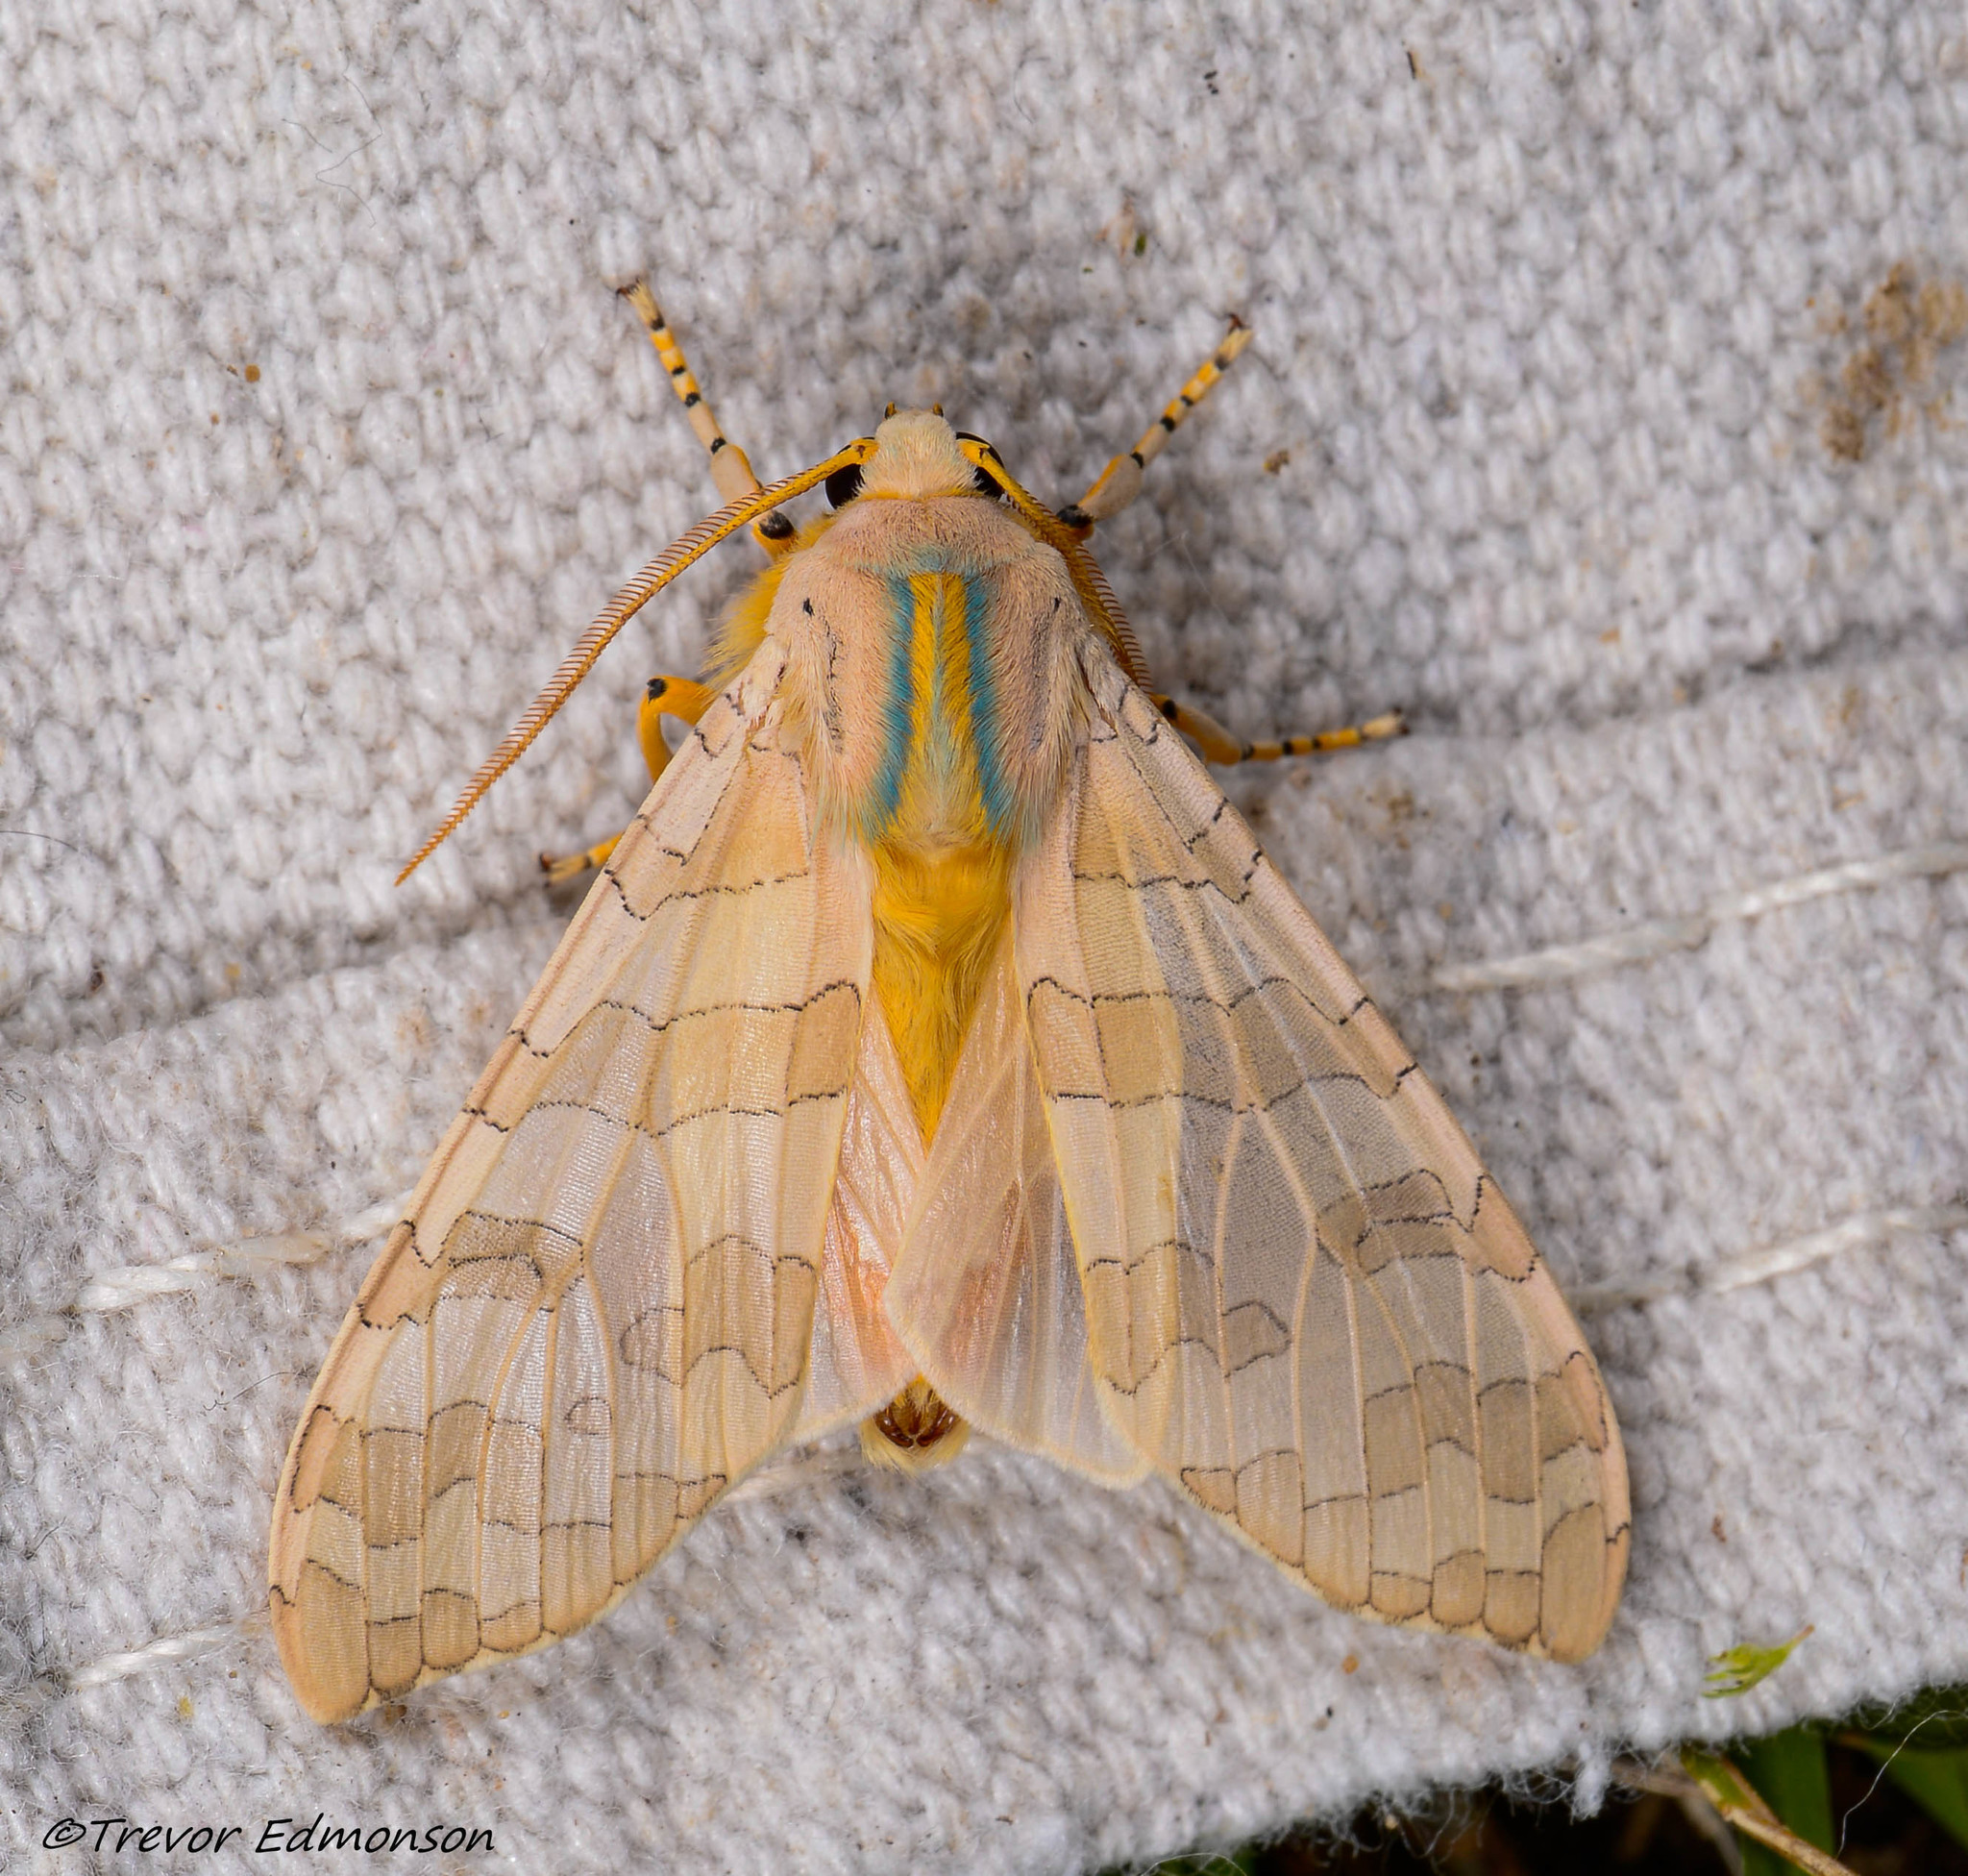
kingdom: Animalia
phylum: Arthropoda
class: Insecta
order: Lepidoptera
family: Erebidae
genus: Halysidota
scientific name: Halysidota
